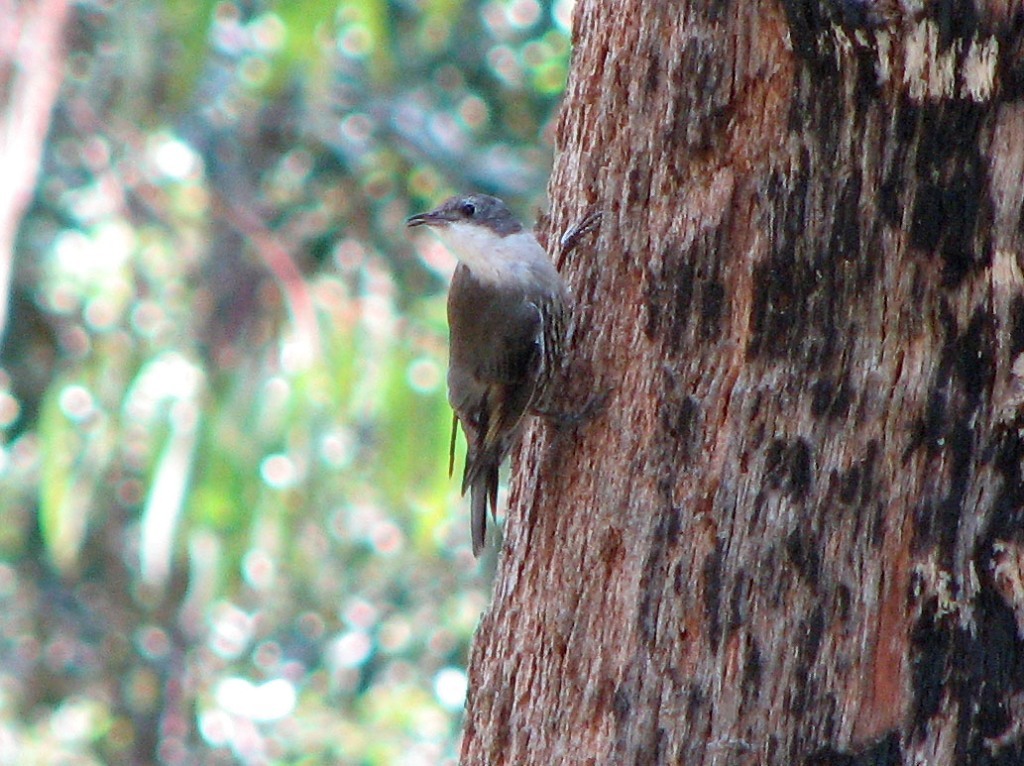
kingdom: Animalia
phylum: Chordata
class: Aves
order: Passeriformes
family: Climacteridae
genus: Cormobates
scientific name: Cormobates leucophaea
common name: White-throated treecreeper
